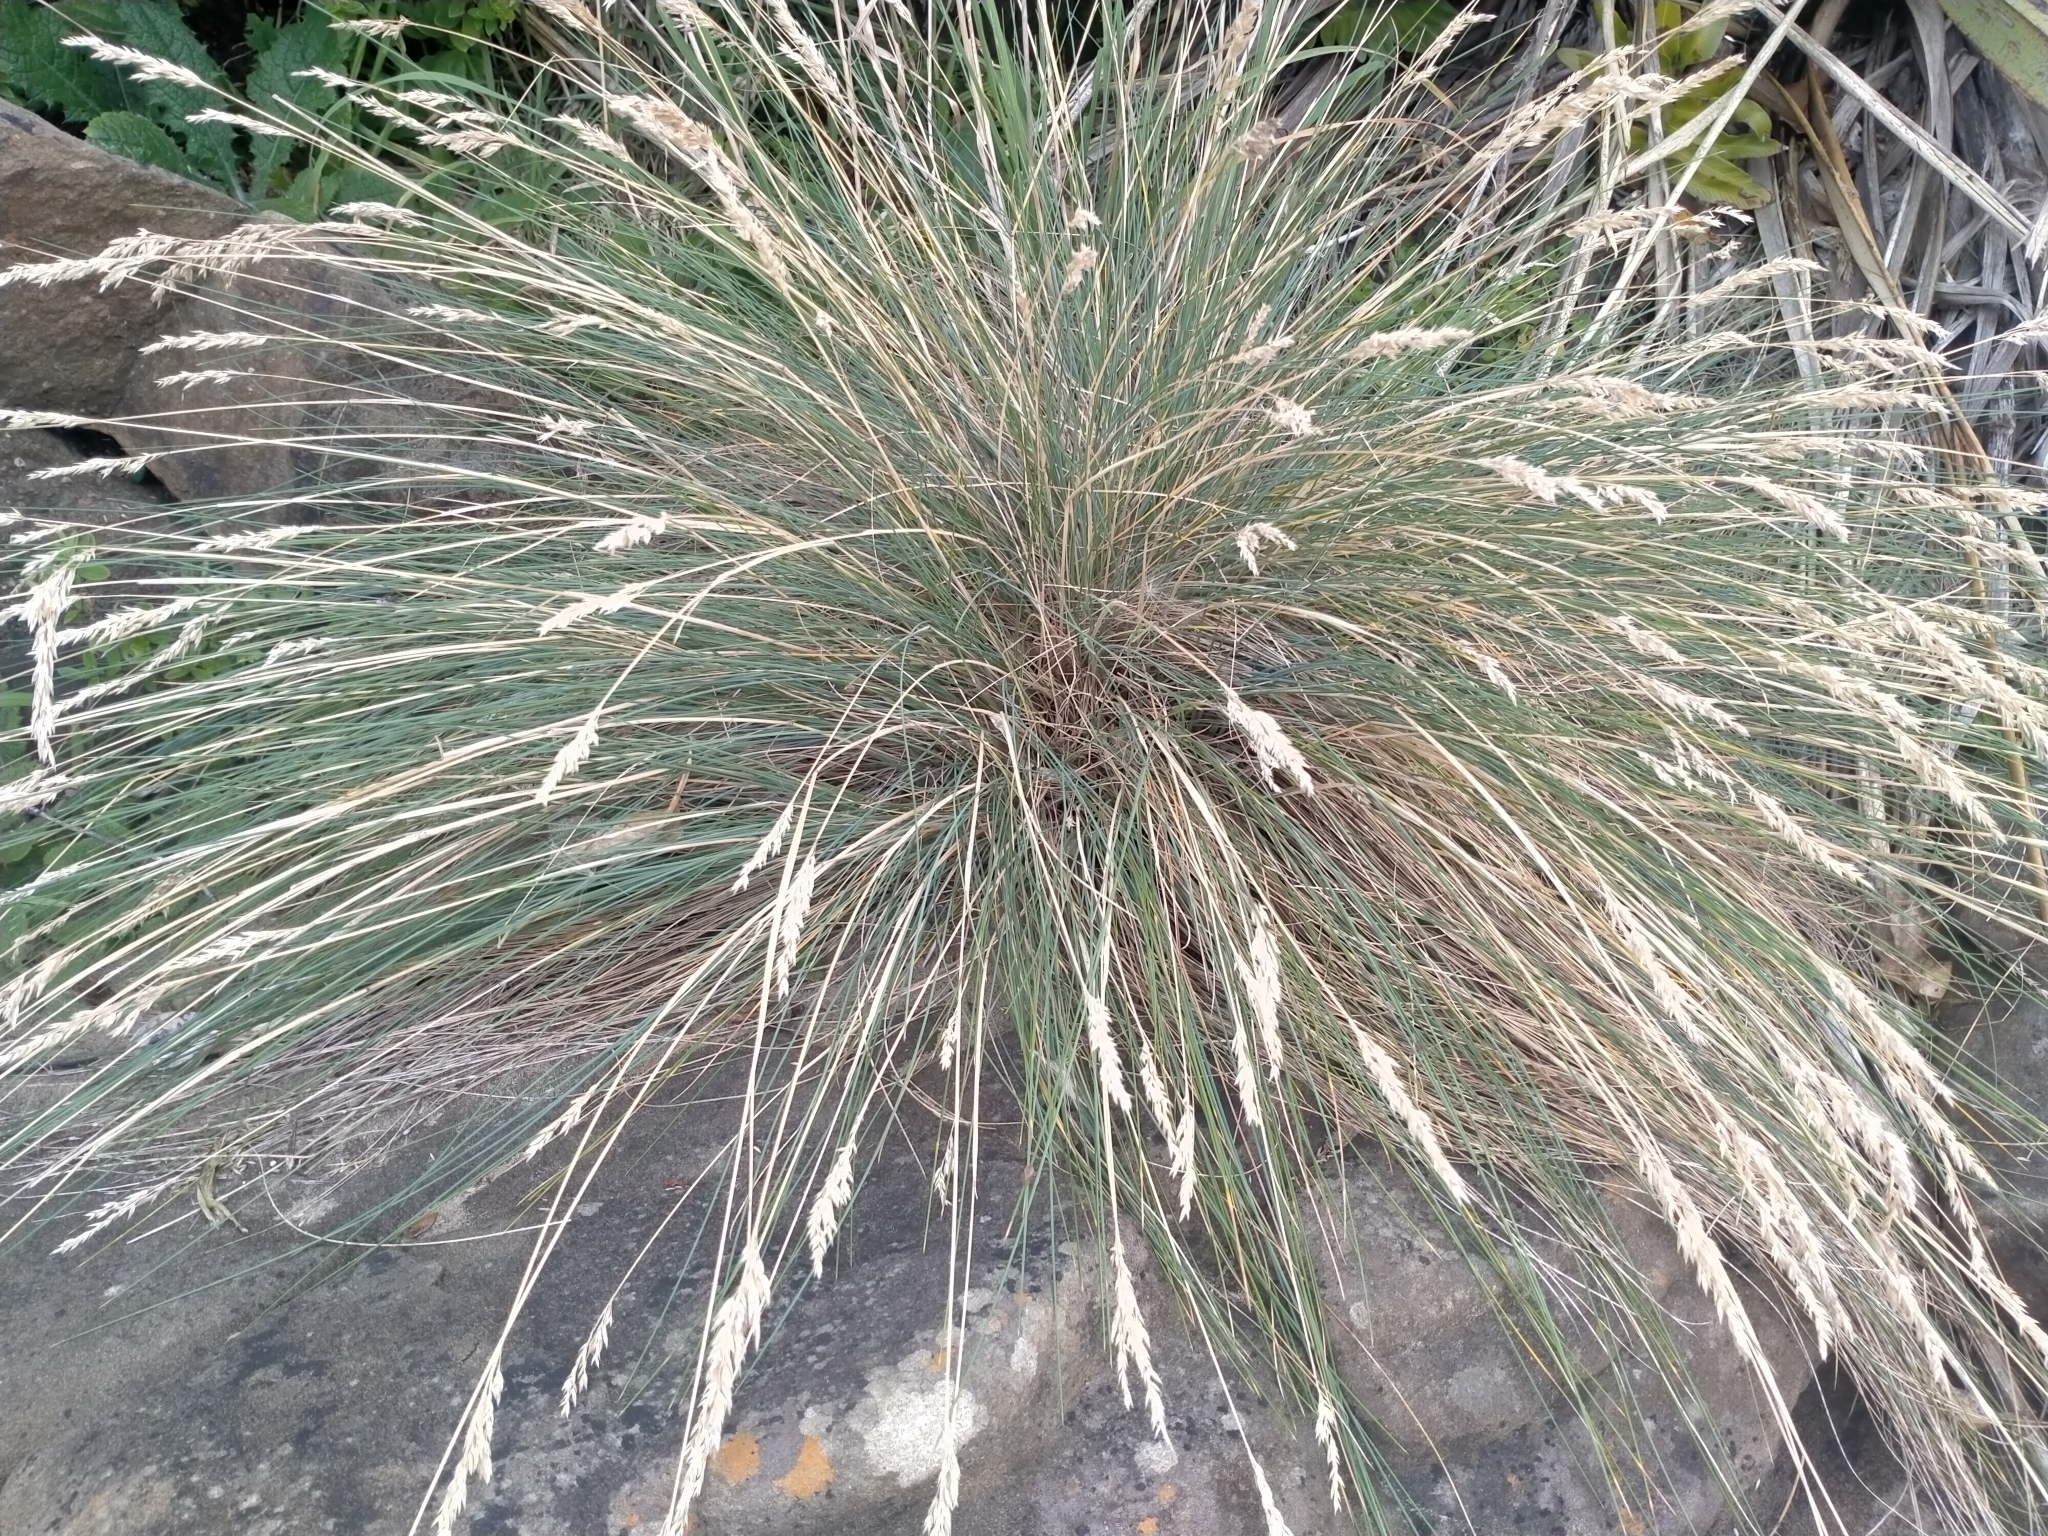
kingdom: Plantae
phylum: Tracheophyta
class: Liliopsida
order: Poales
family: Poaceae
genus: Poa
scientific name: Poa astonii
